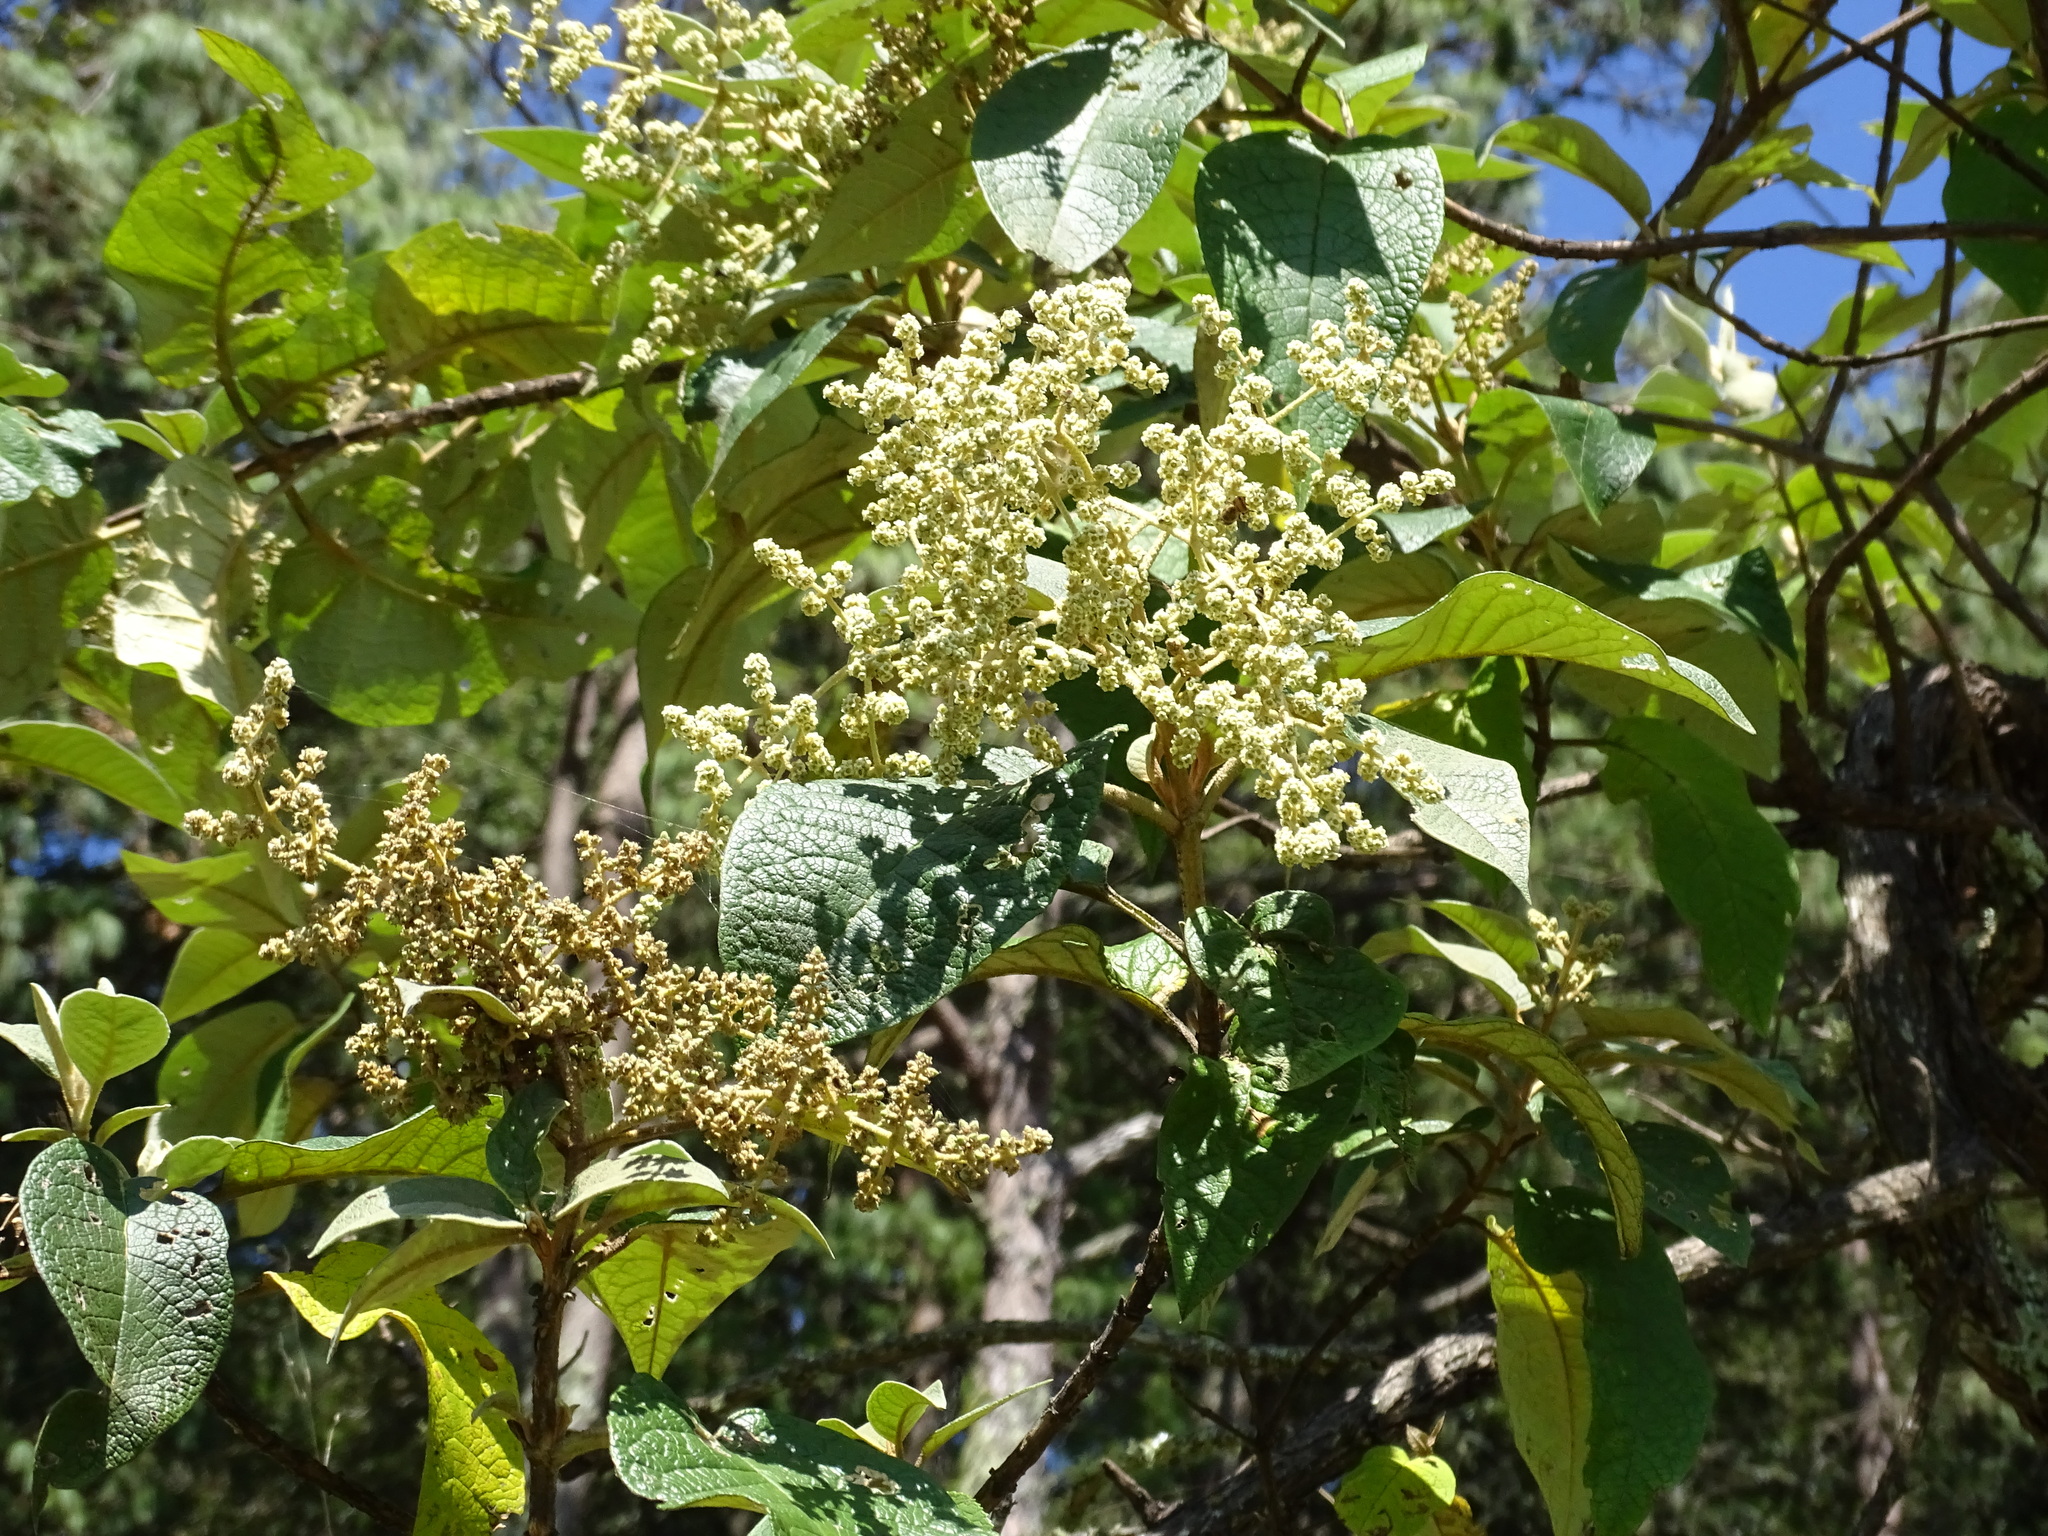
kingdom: Plantae
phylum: Tracheophyta
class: Magnoliopsida
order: Lamiales
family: Scrophulariaceae
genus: Buddleja
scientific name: Buddleja cordata
